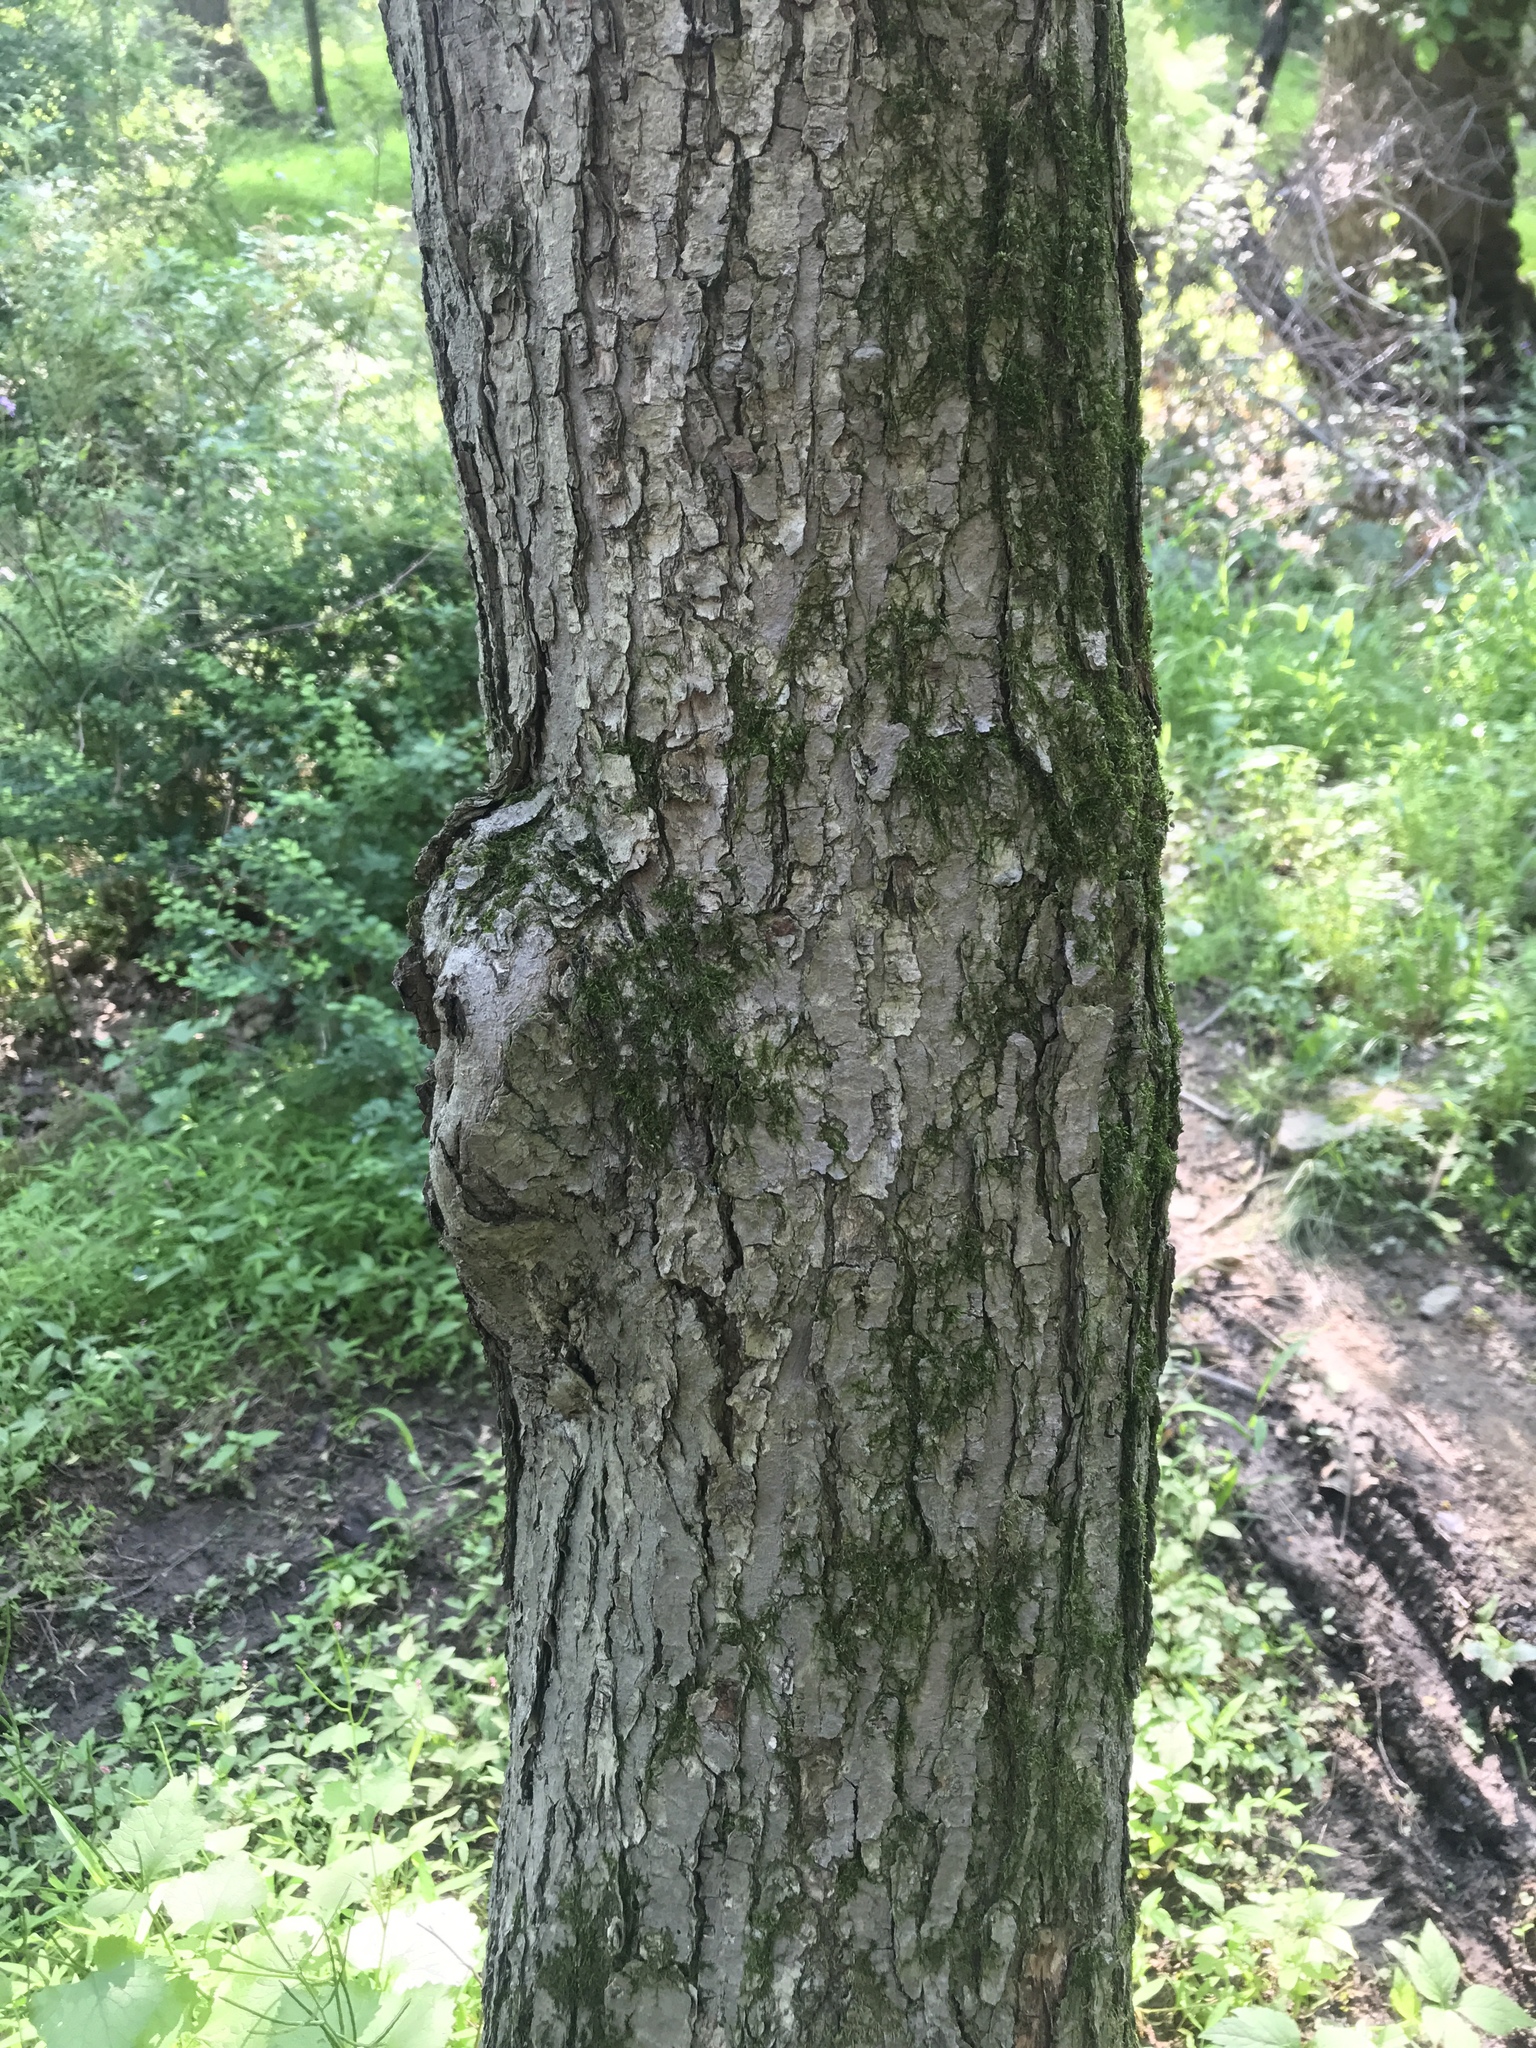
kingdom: Plantae
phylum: Tracheophyta
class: Magnoliopsida
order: Sapindales
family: Sapindaceae
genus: Acer
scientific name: Acer rubrum
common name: Red maple
